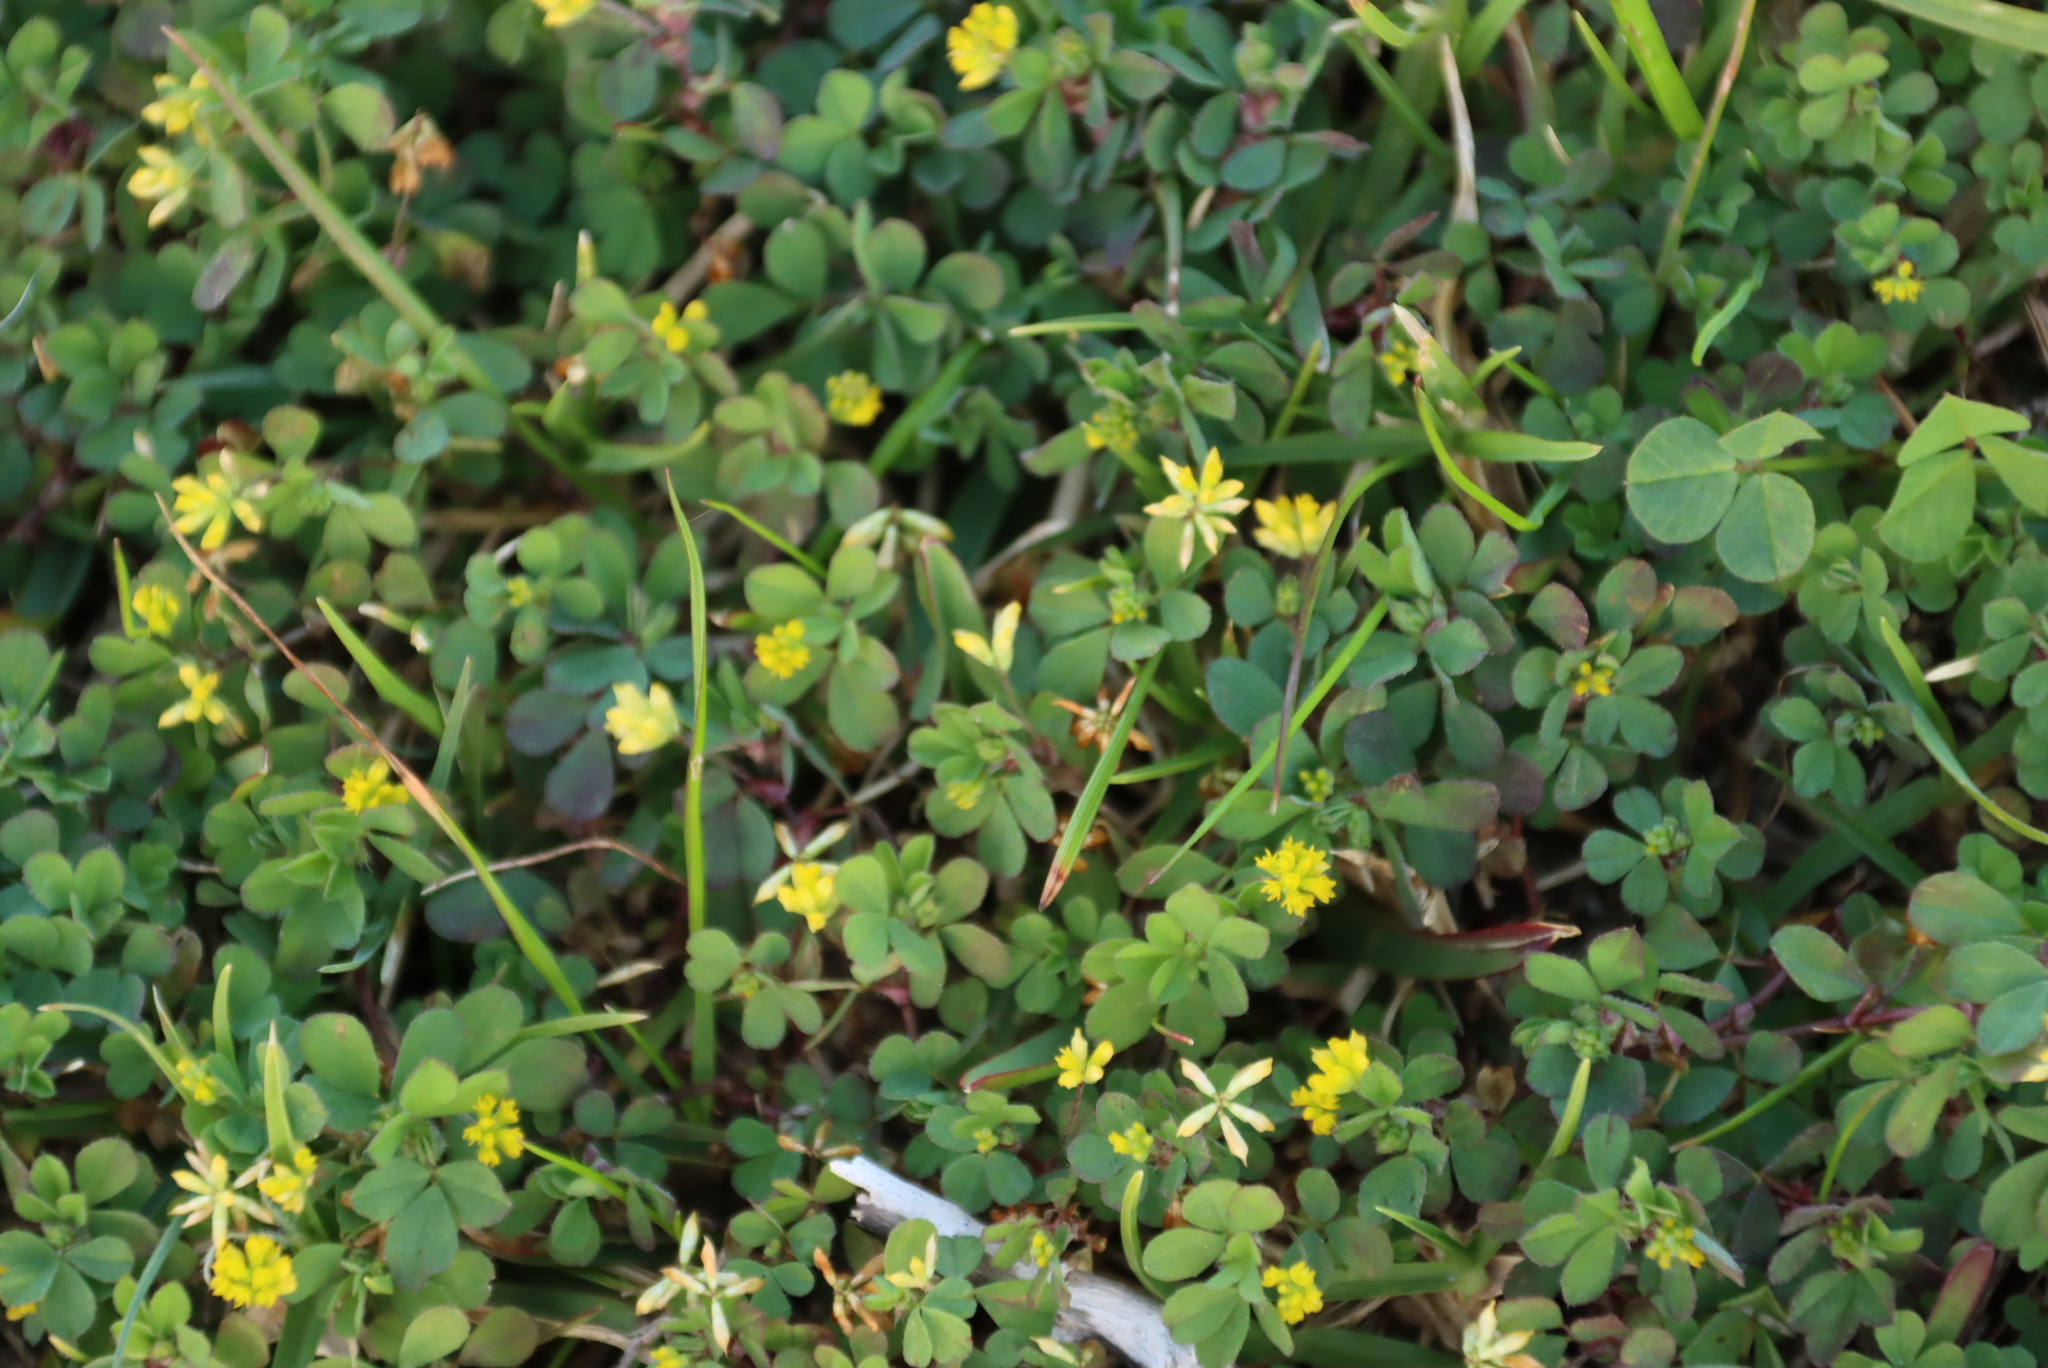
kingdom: Plantae
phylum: Tracheophyta
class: Magnoliopsida
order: Fabales
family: Fabaceae
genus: Trifolium
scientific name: Trifolium dubium
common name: Suckling clover
